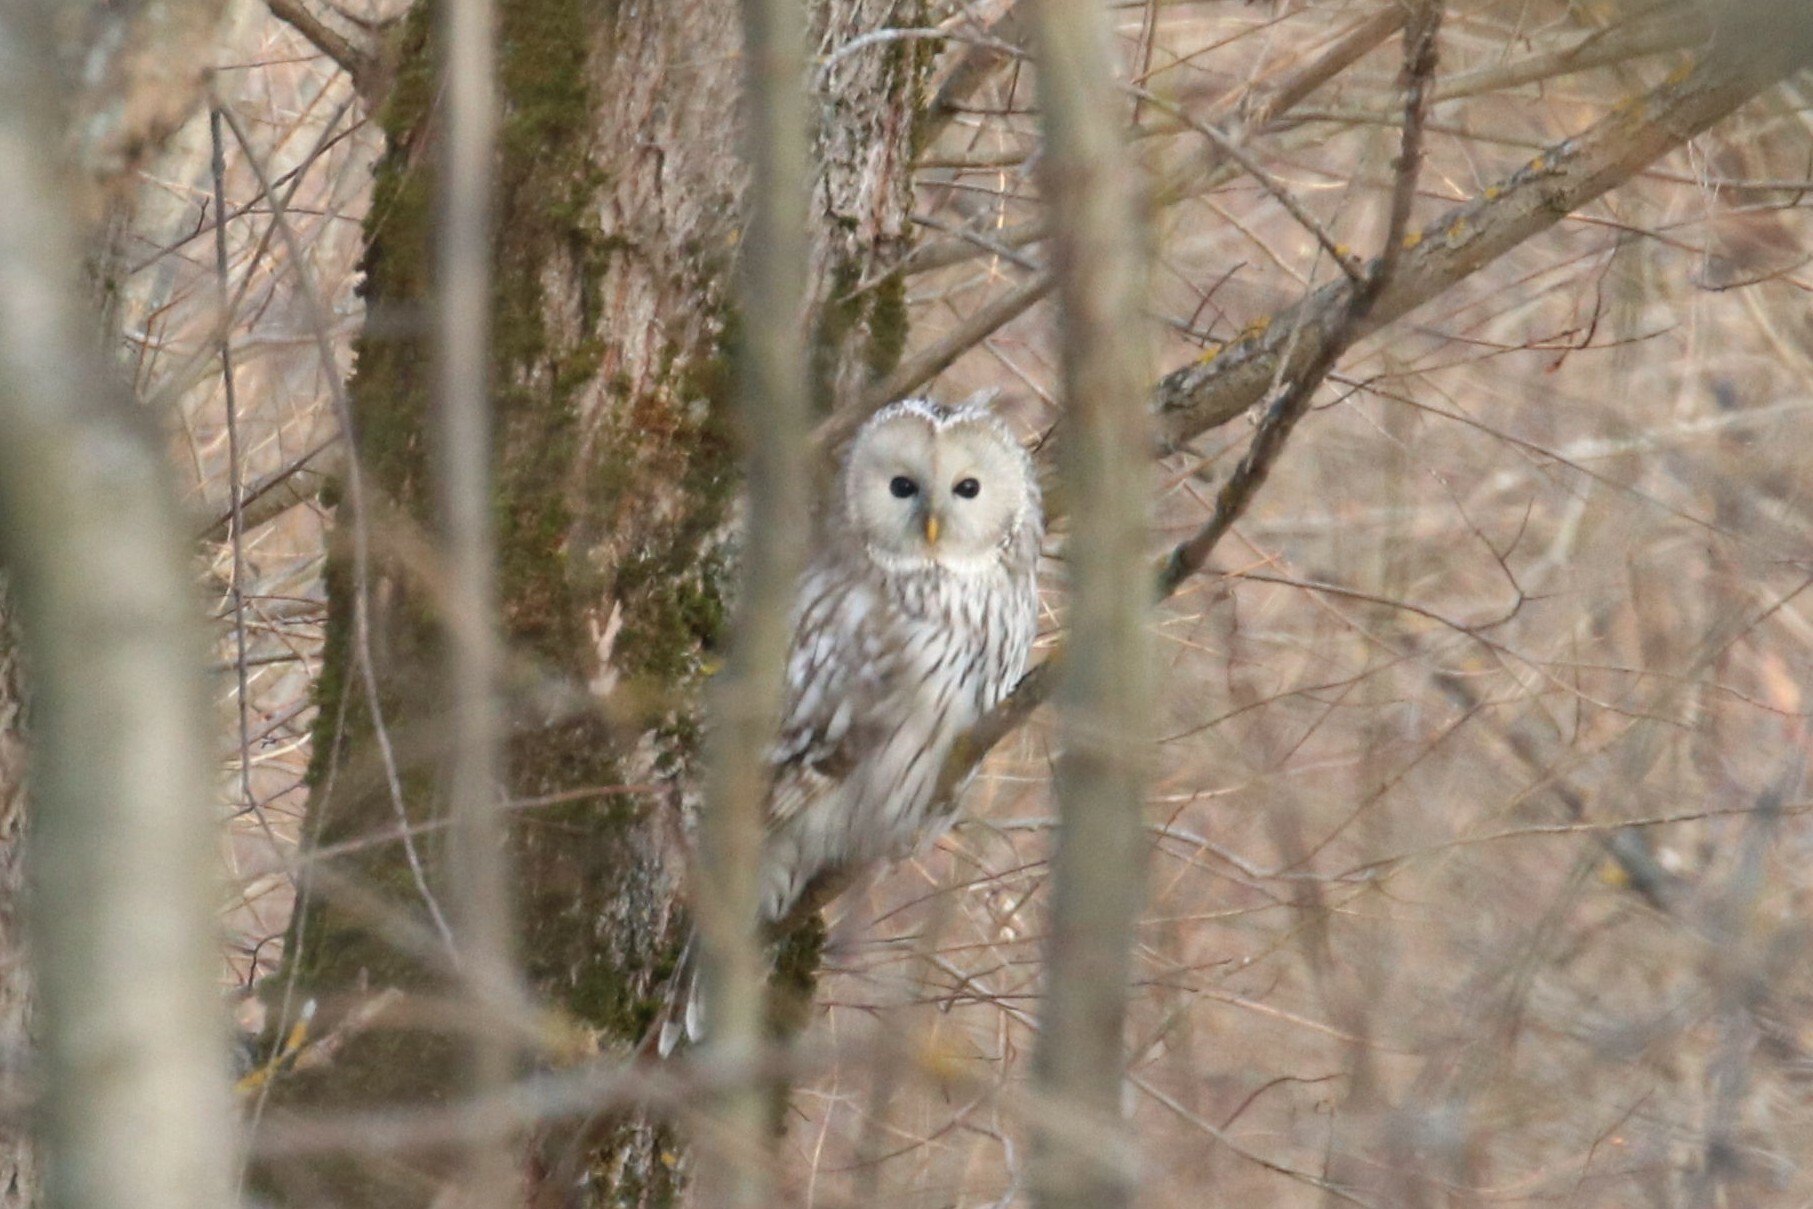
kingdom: Animalia
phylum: Chordata
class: Aves
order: Strigiformes
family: Strigidae
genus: Strix
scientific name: Strix uralensis
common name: Ural owl
